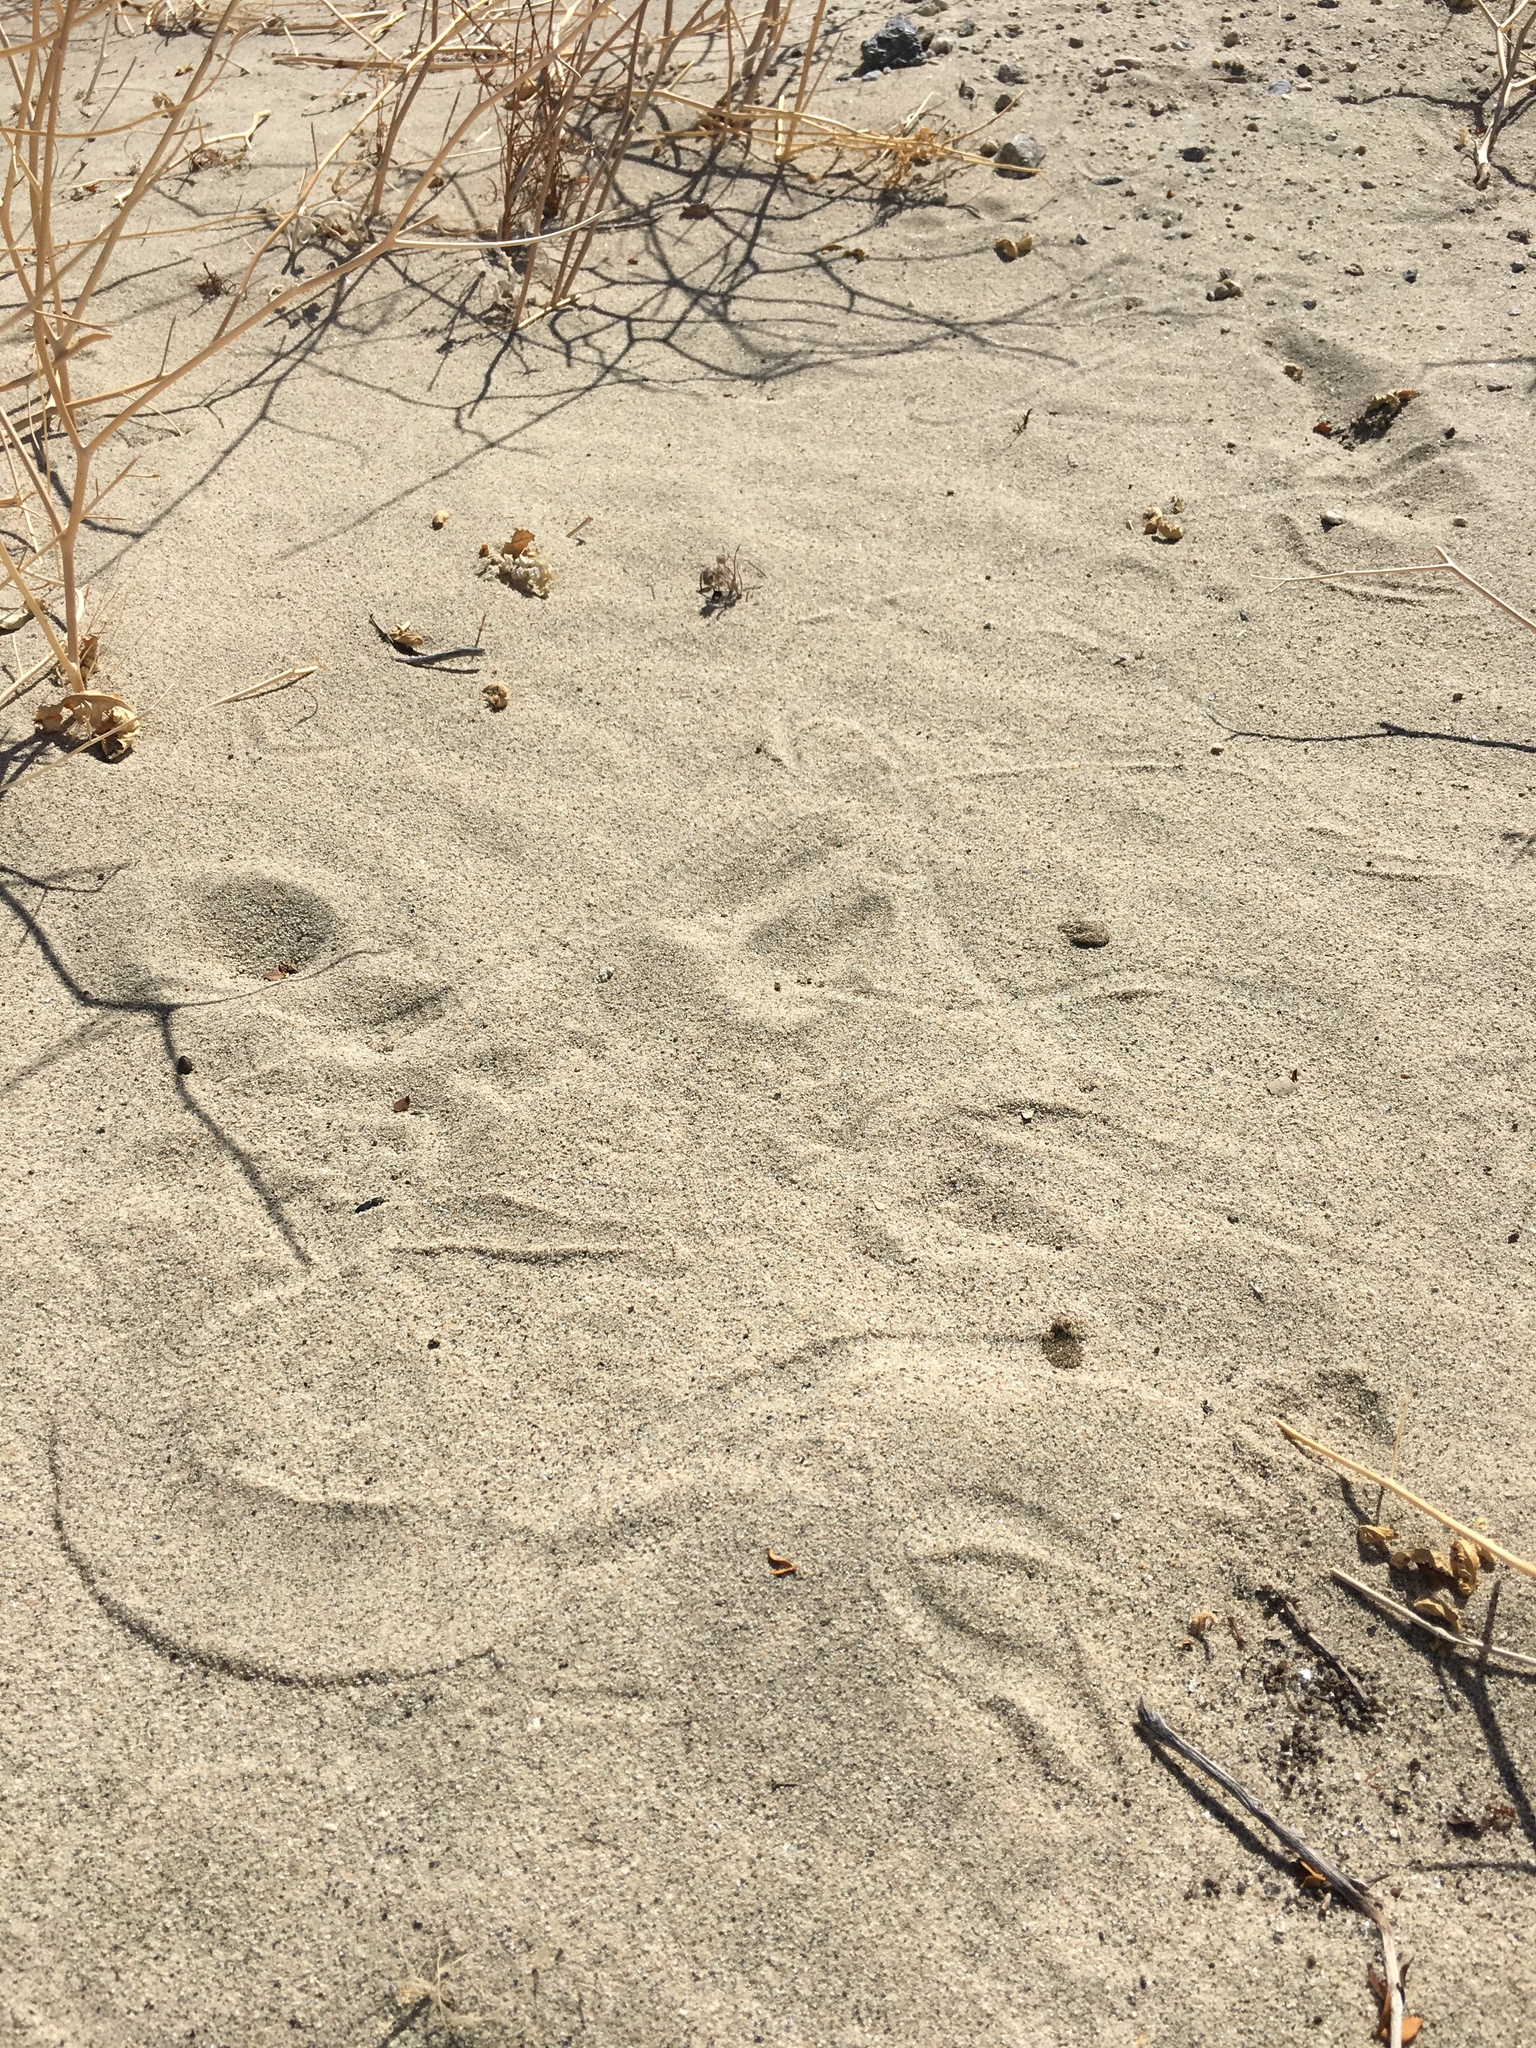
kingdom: Animalia
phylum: Chordata
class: Squamata
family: Viperidae
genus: Crotalus
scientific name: Crotalus cerastes
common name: Sidewinder
